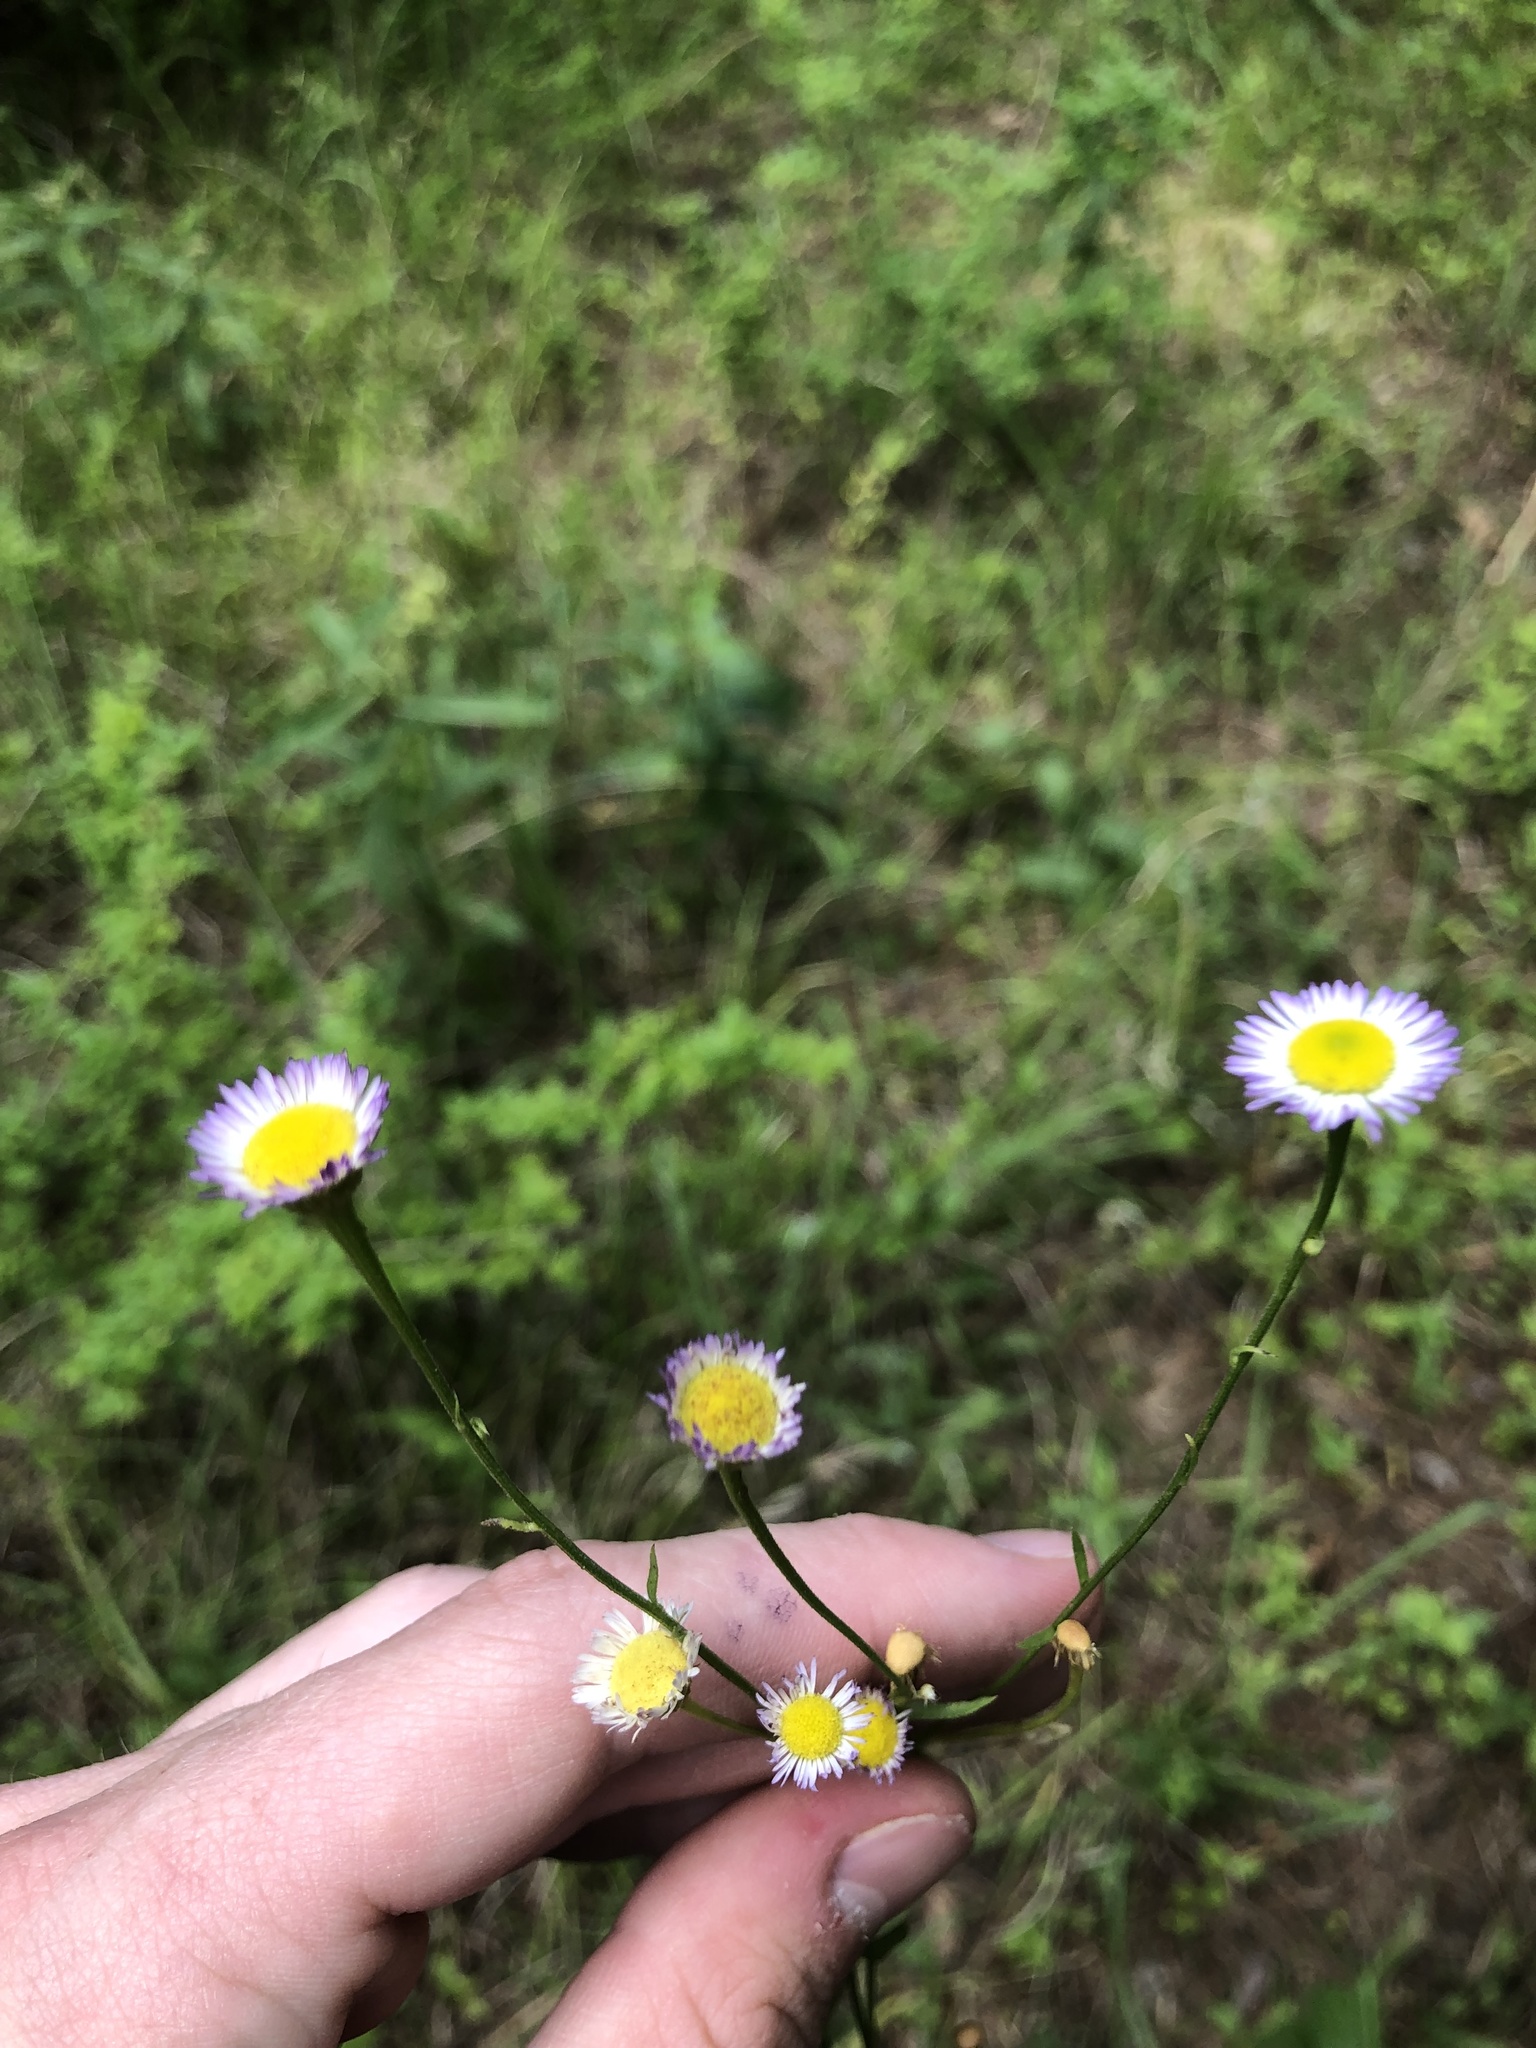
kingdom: Plantae
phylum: Tracheophyta
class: Magnoliopsida
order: Asterales
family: Asteraceae
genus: Erigeron
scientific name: Erigeron tenuis
